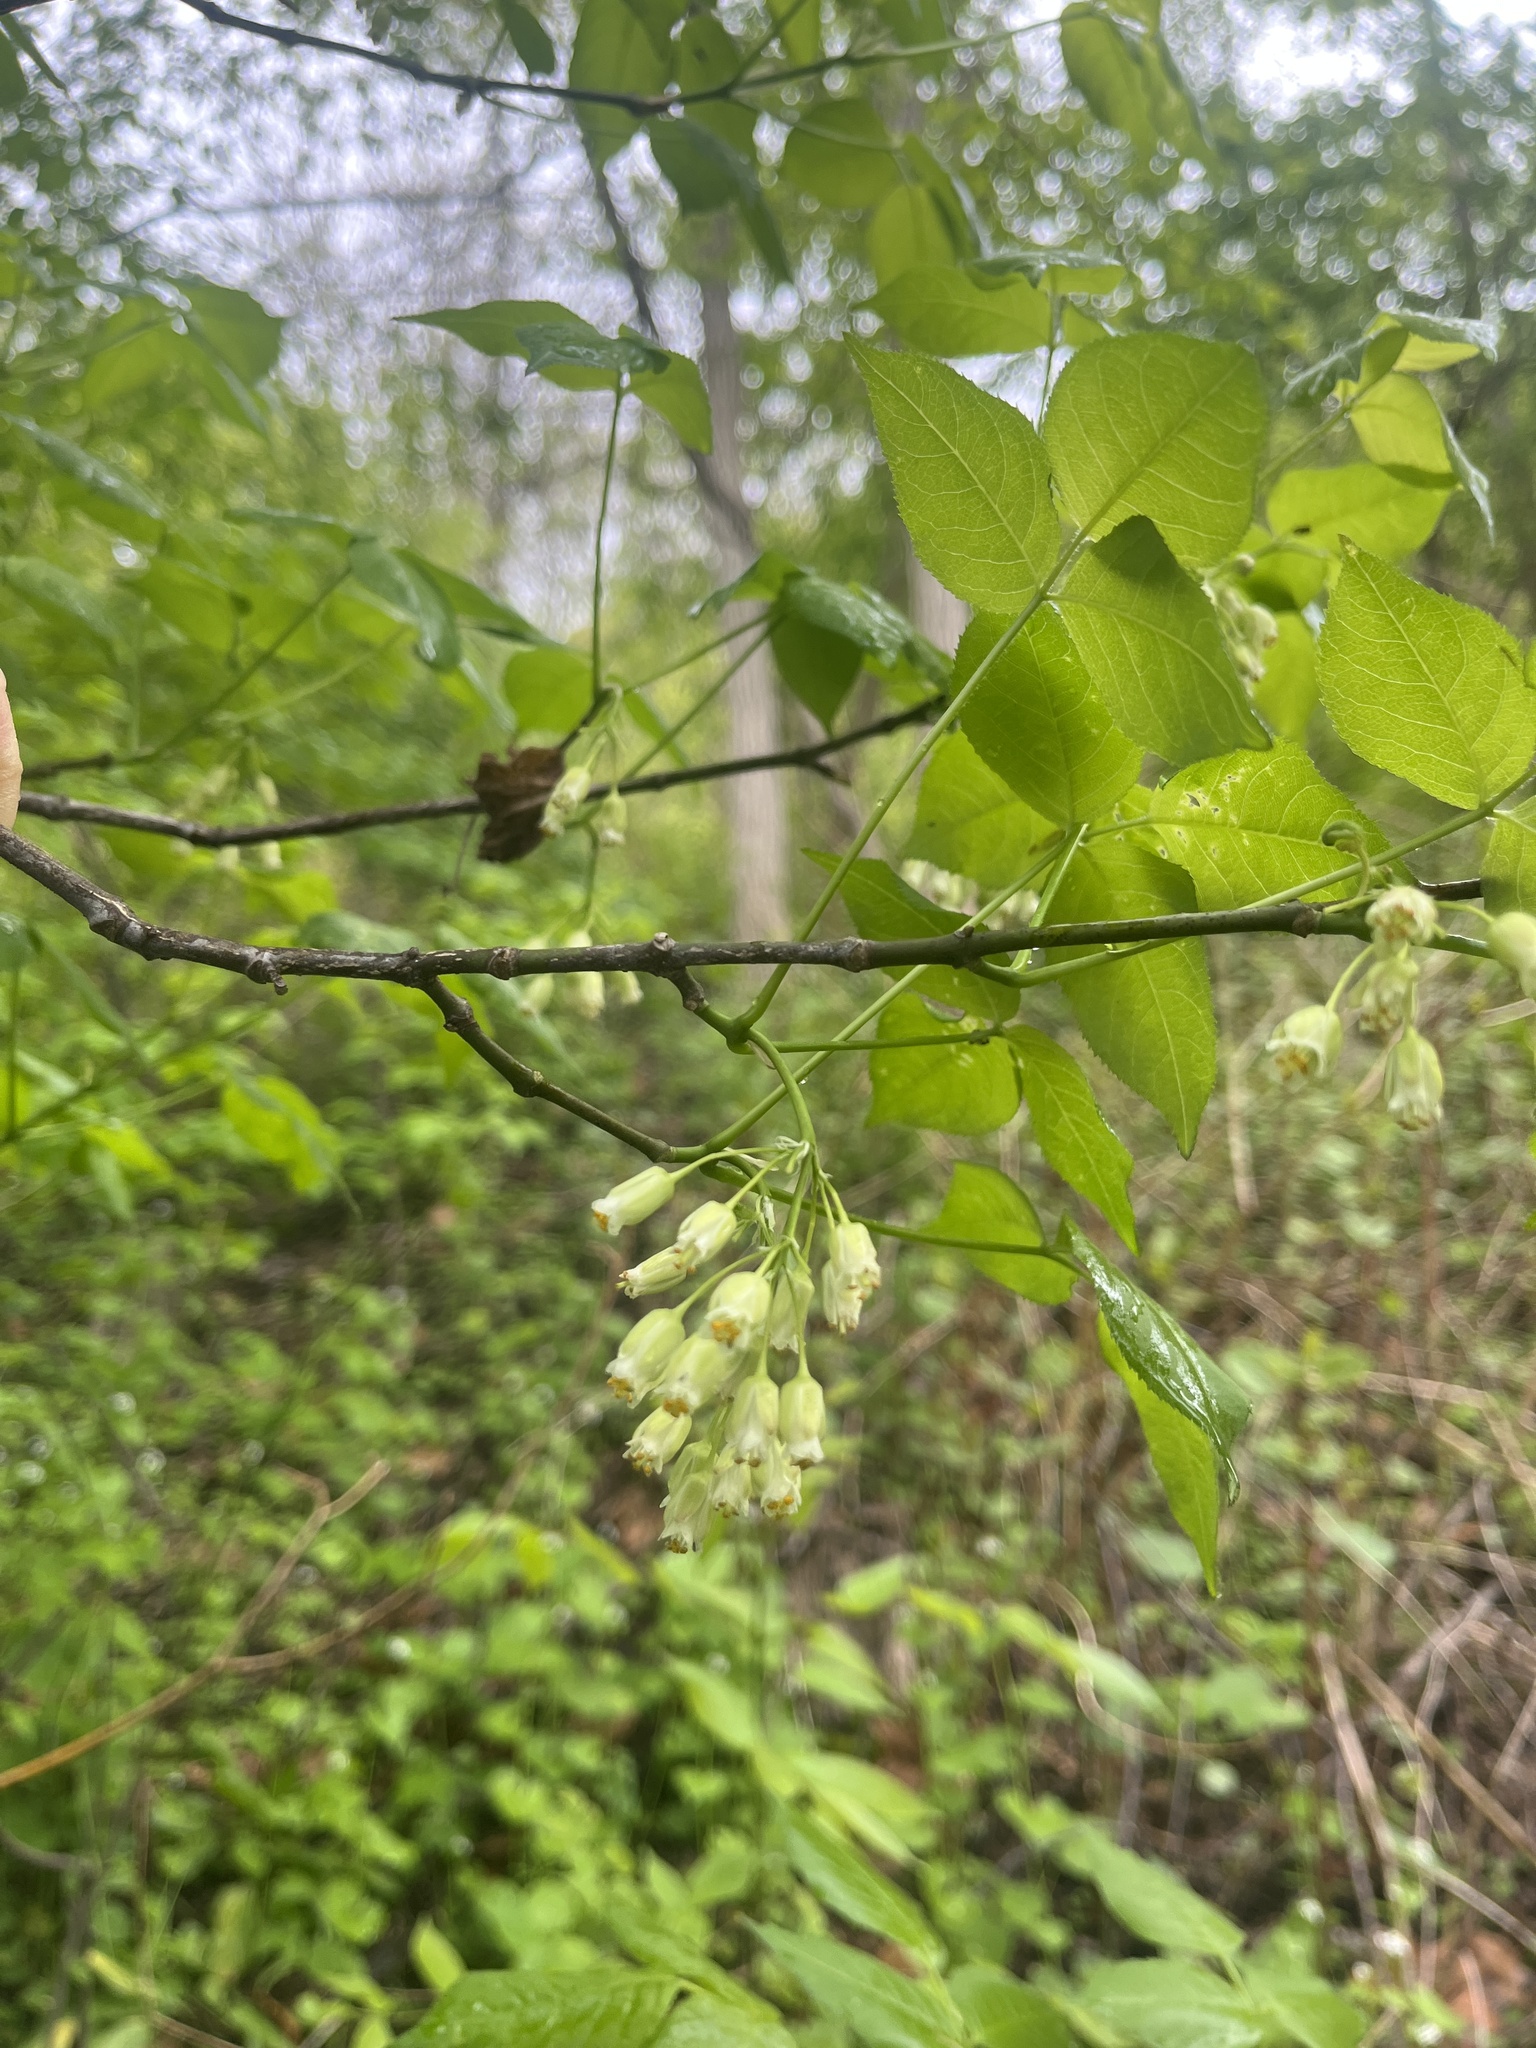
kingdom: Plantae
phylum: Tracheophyta
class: Magnoliopsida
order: Crossosomatales
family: Staphyleaceae
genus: Staphylea
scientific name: Staphylea trifolia
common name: American bladdernut
